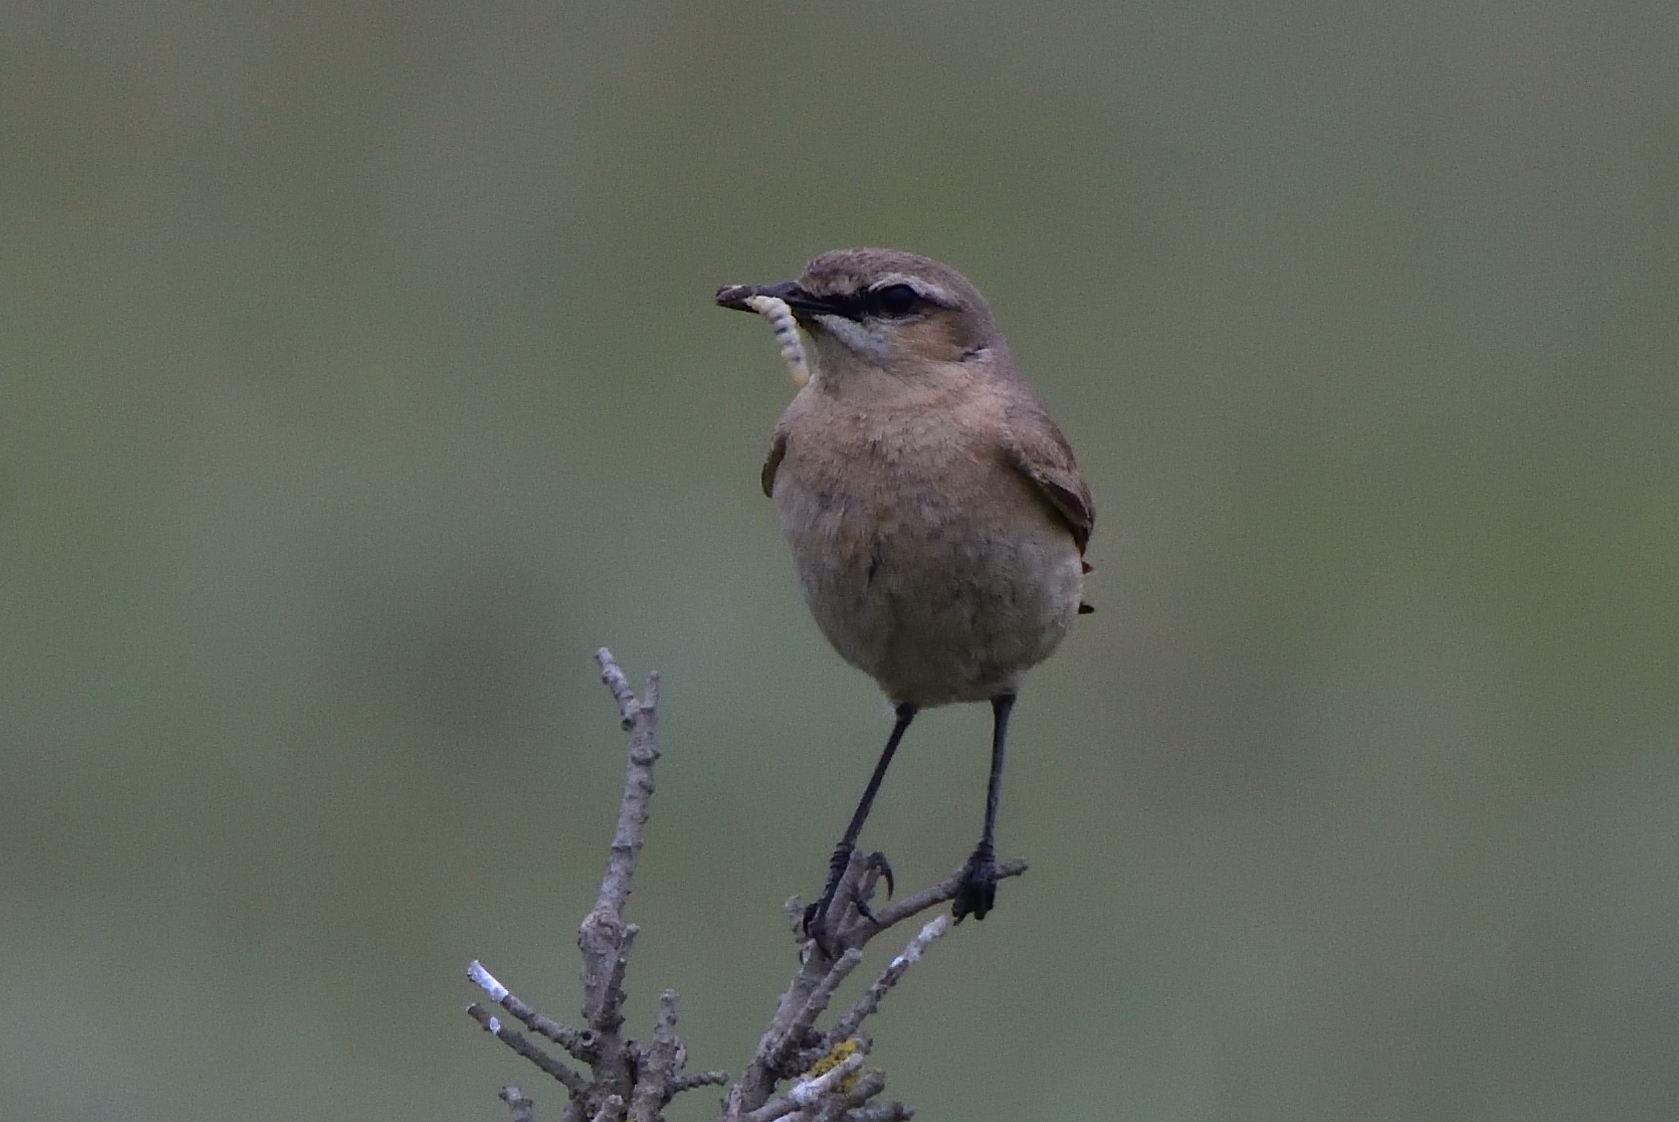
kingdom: Animalia
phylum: Chordata
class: Aves
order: Passeriformes
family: Muscicapidae
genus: Oenanthe
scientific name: Oenanthe isabellina
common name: Isabelline wheatear
